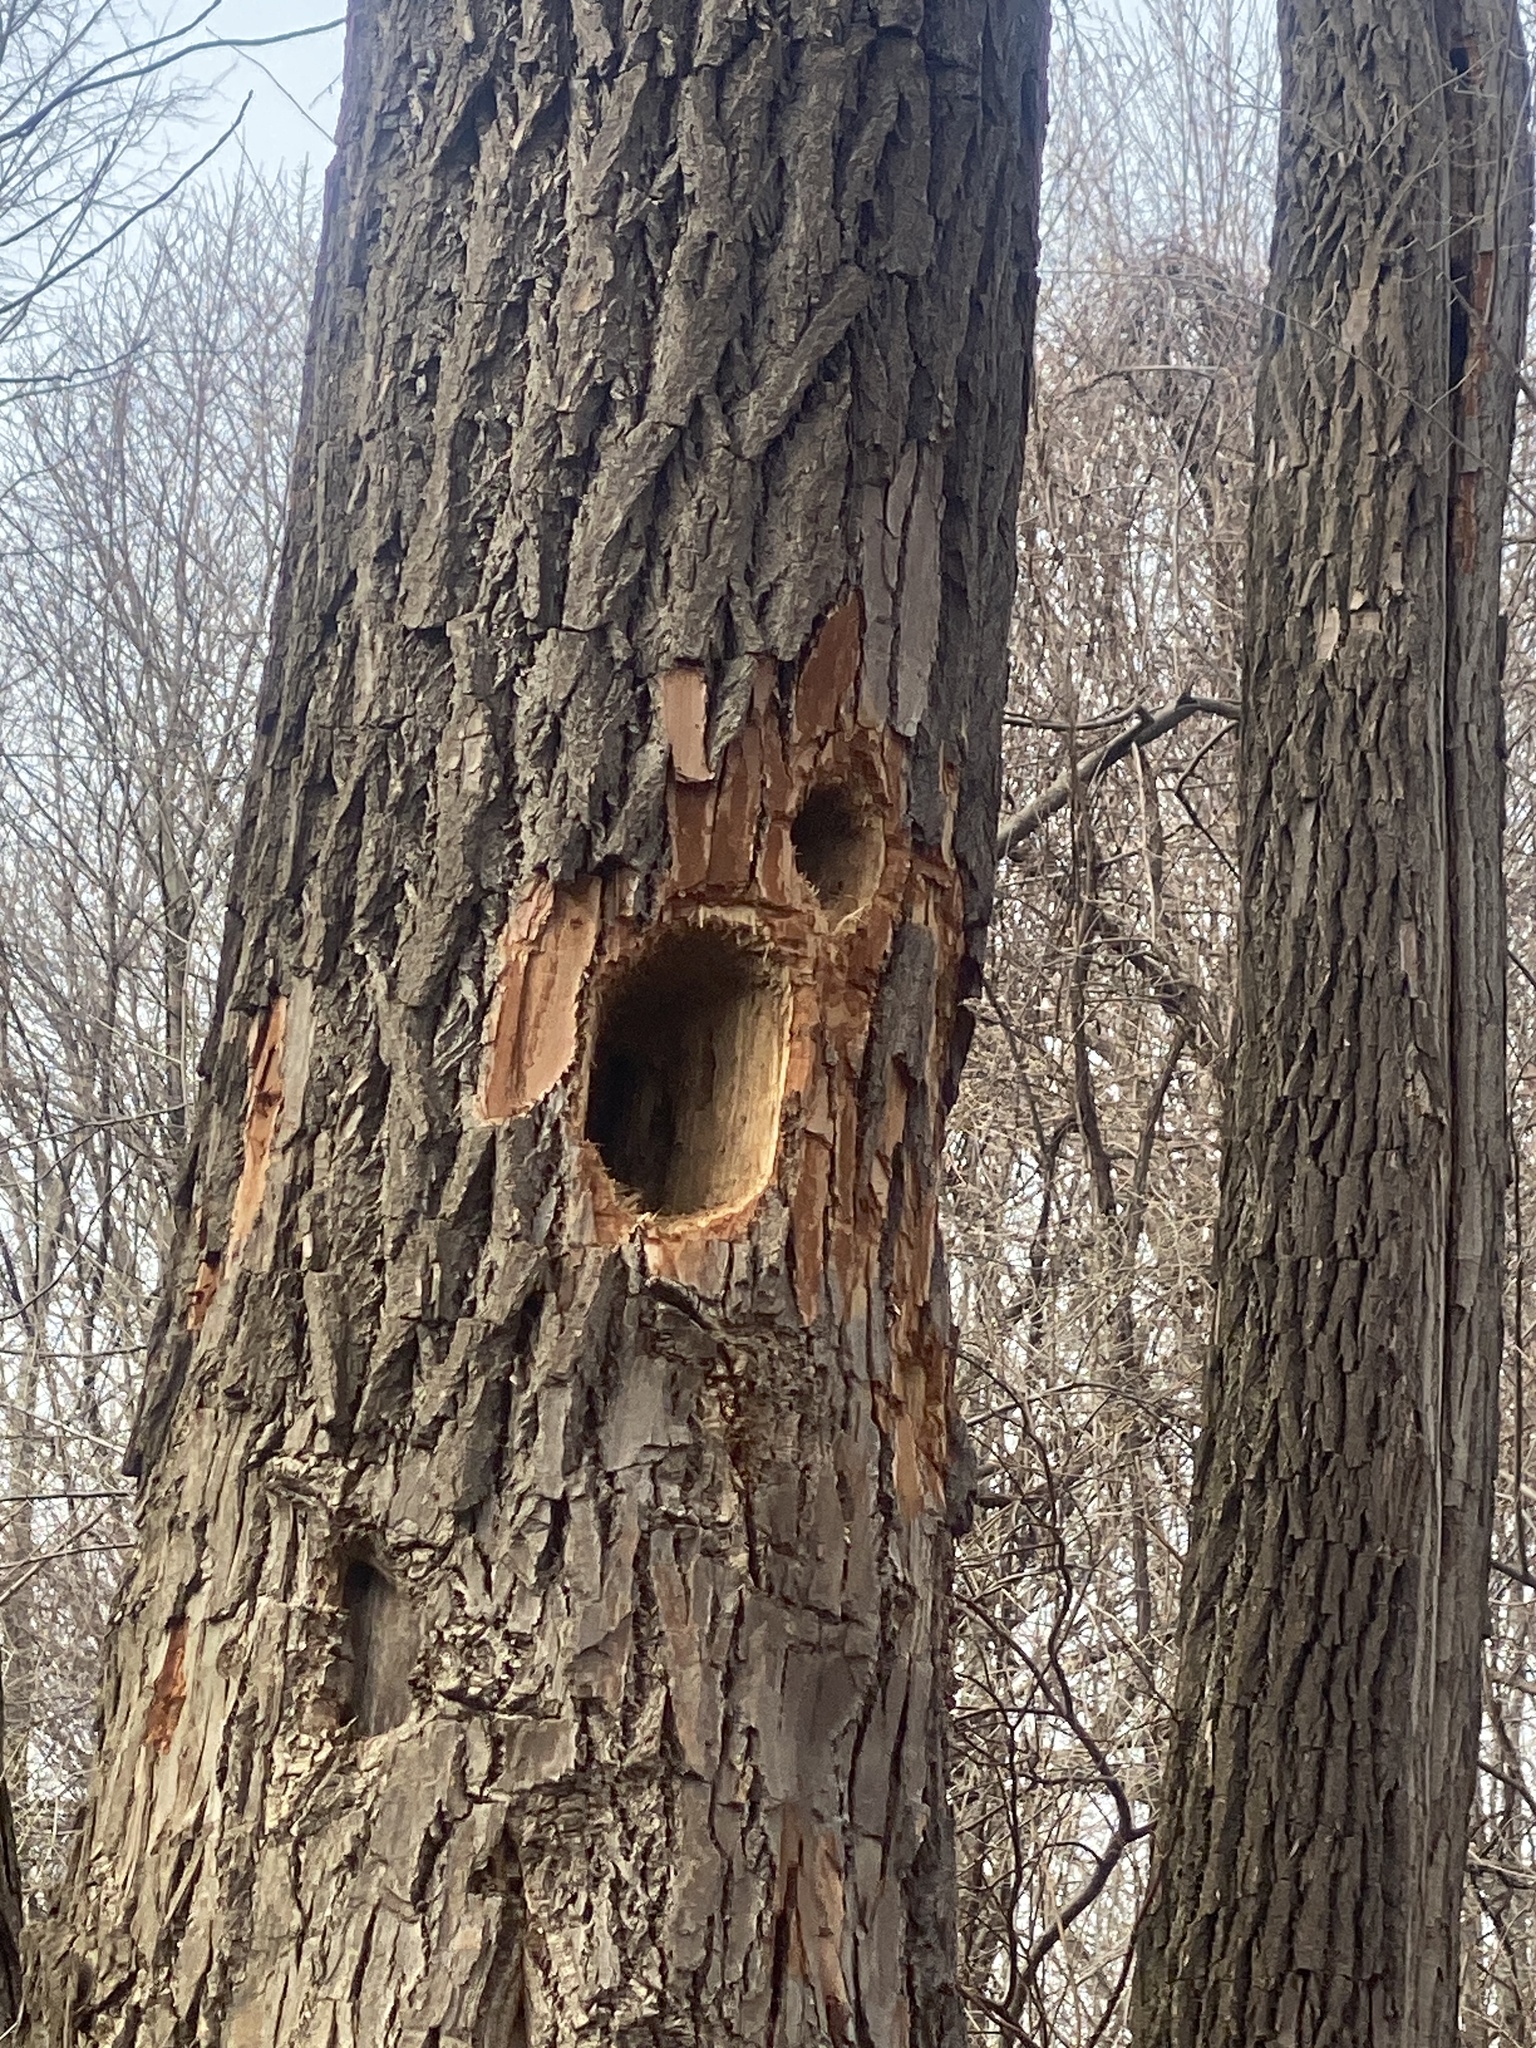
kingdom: Animalia
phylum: Chordata
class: Aves
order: Piciformes
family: Picidae
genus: Dryocopus
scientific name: Dryocopus pileatus
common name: Pileated woodpecker
